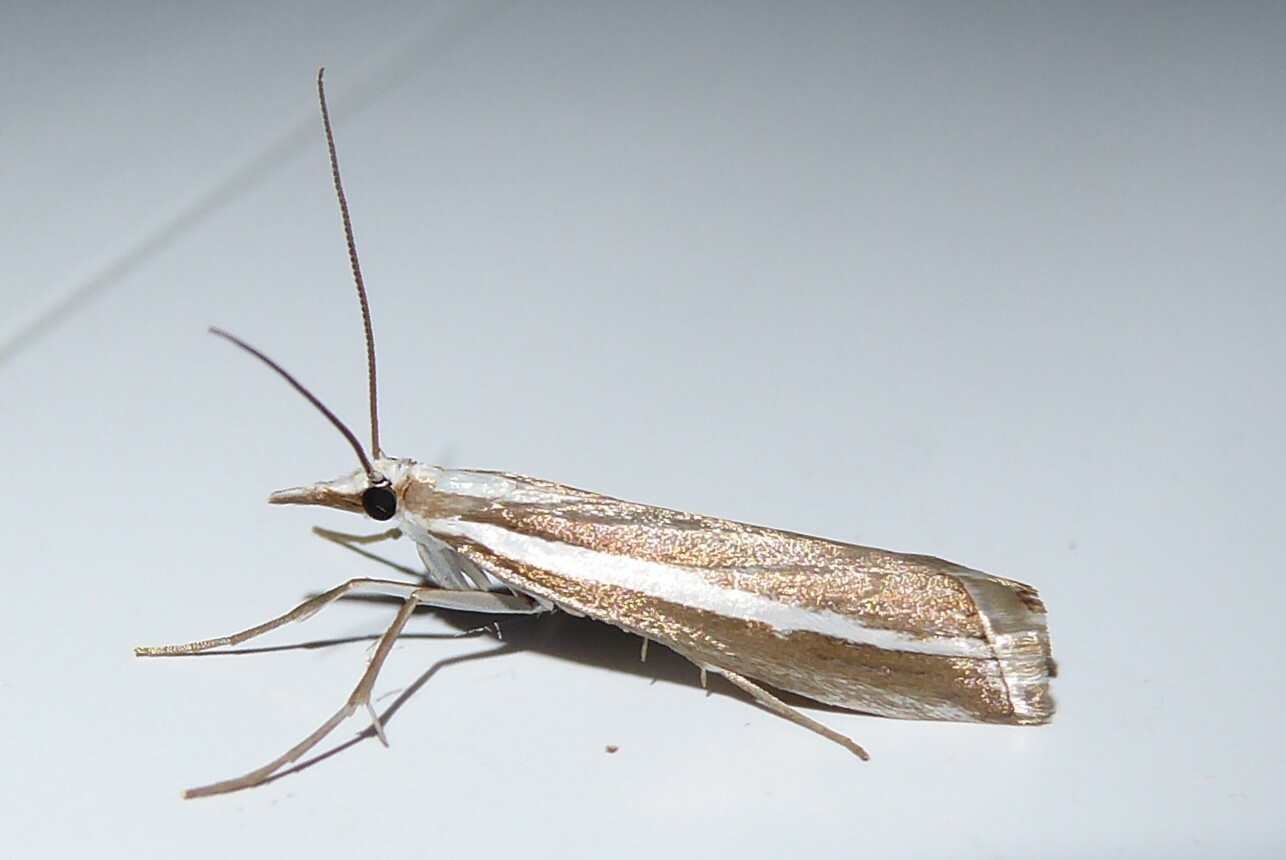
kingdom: Animalia
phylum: Arthropoda
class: Insecta
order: Lepidoptera
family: Crambidae
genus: Orocrambus
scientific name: Orocrambus vittellus
